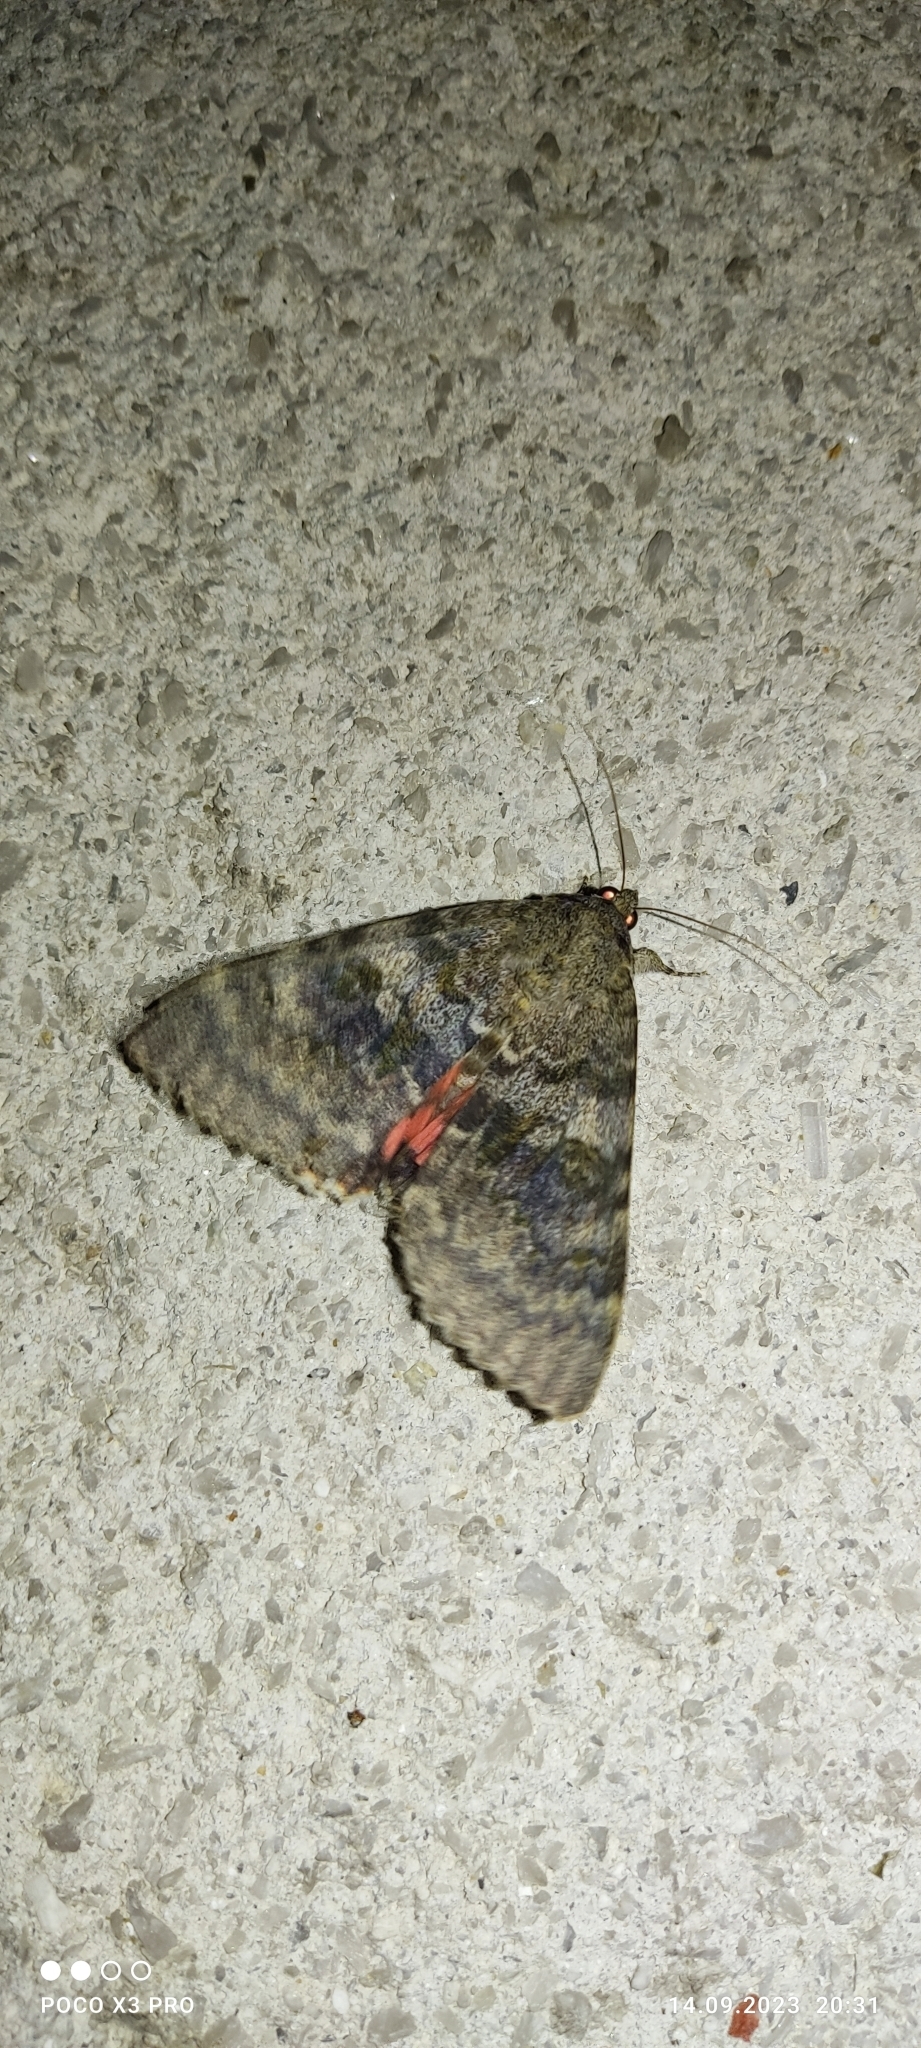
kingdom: Animalia
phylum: Arthropoda
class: Insecta
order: Lepidoptera
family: Erebidae
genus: Catocala
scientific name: Catocala elocata
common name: French red underwing
